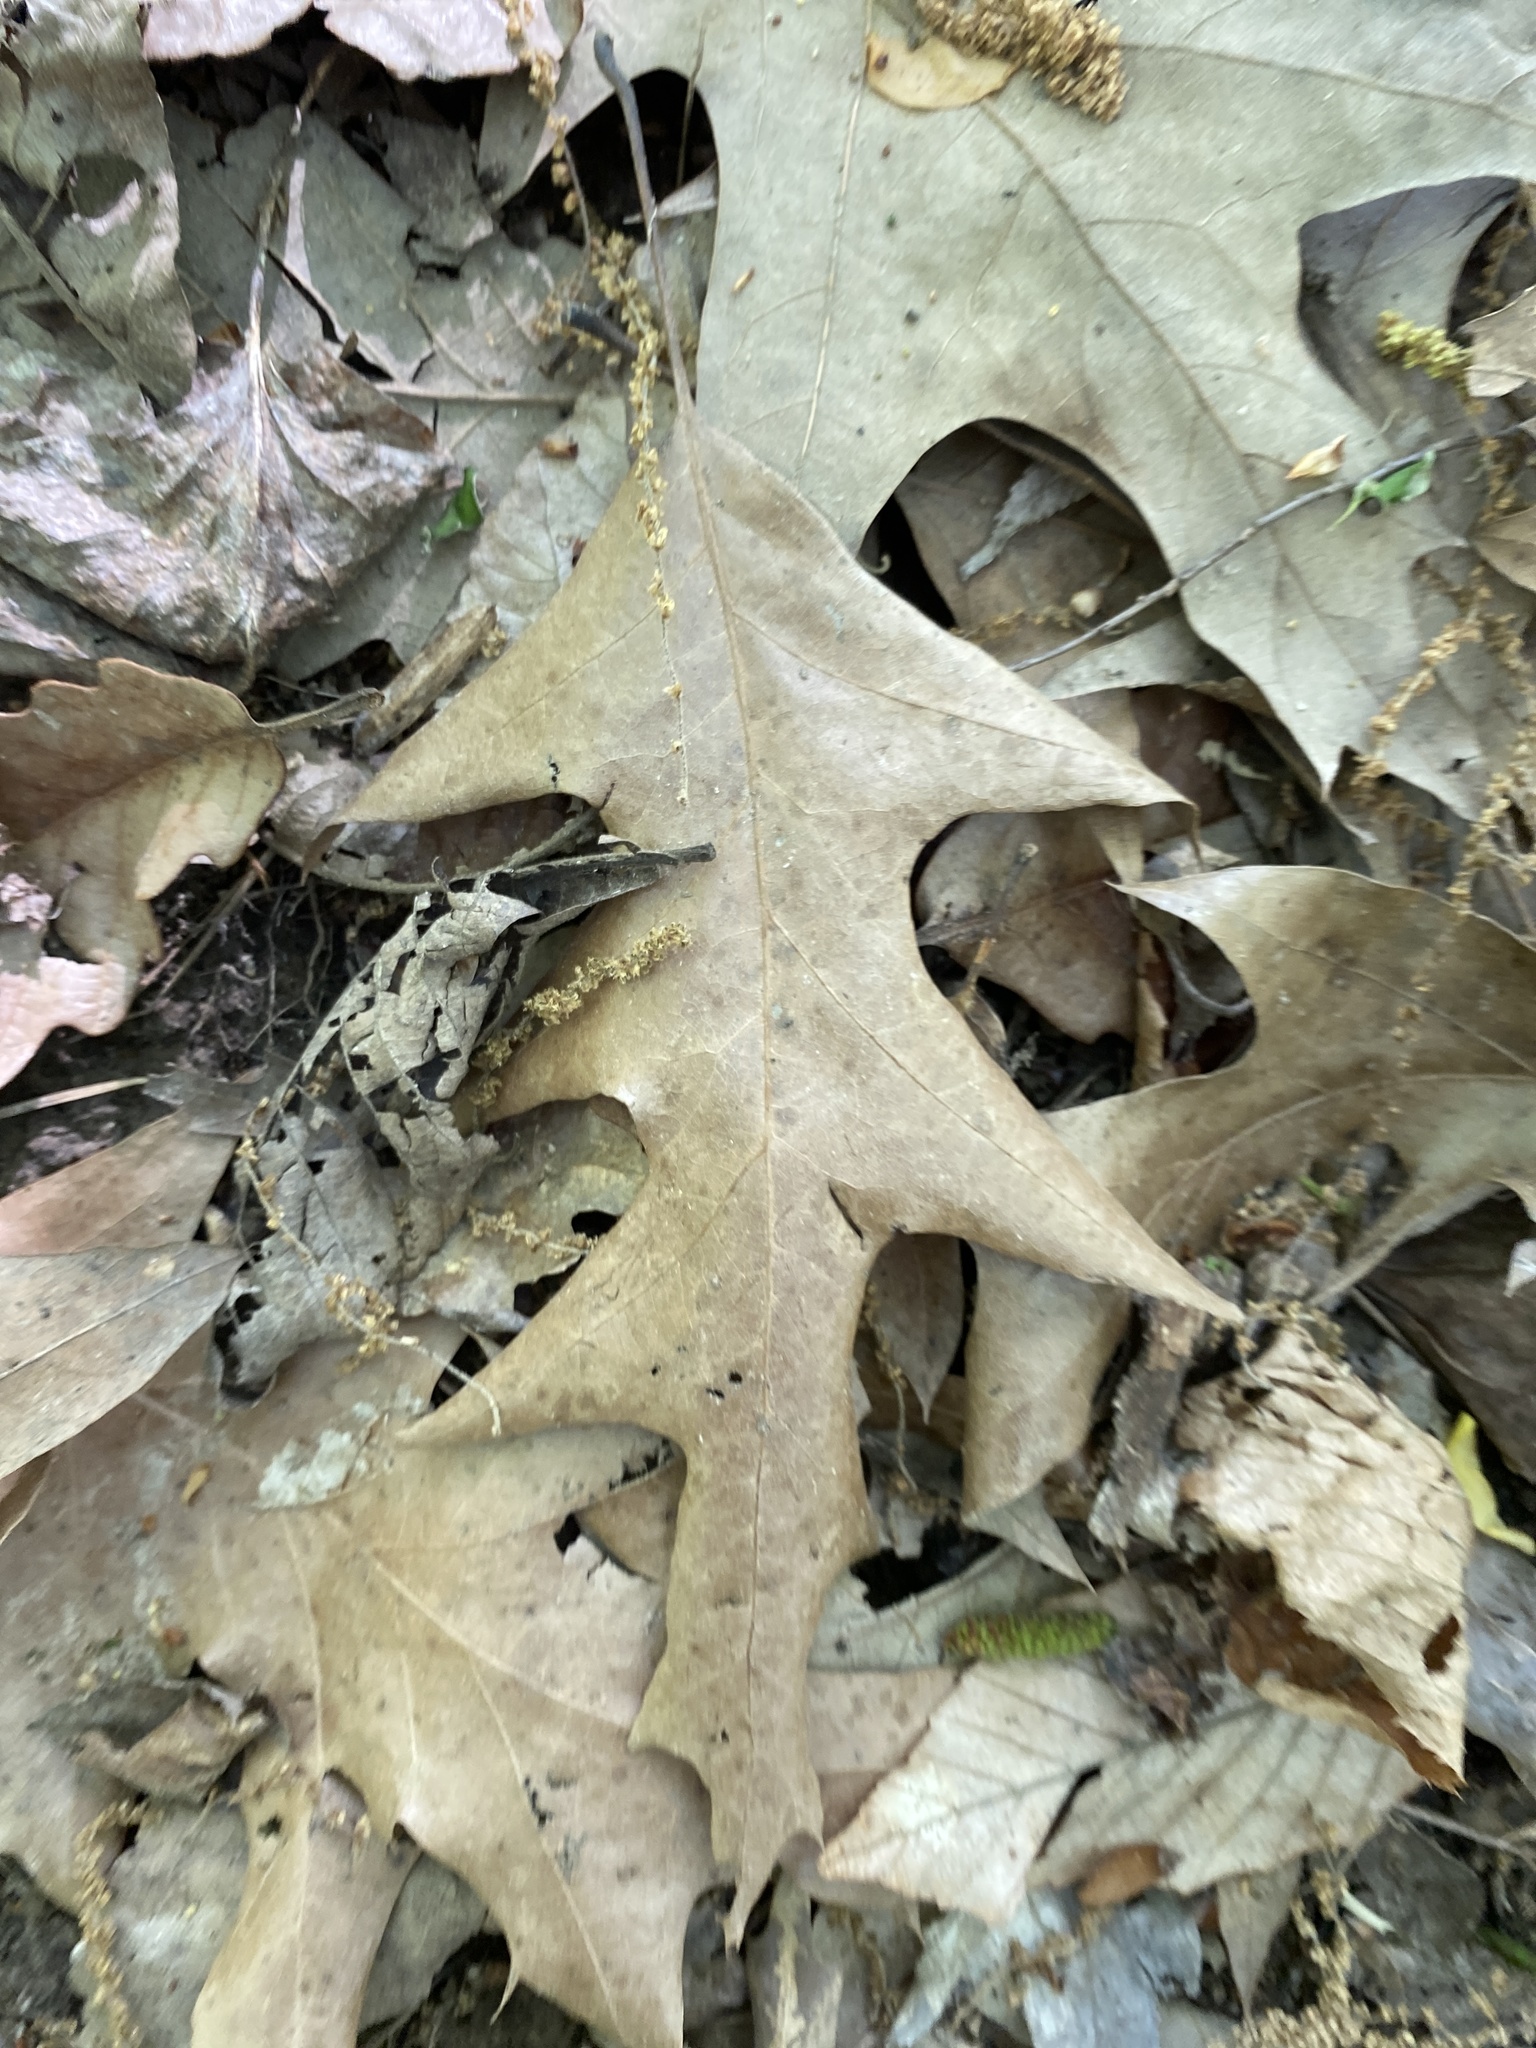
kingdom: Plantae
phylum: Tracheophyta
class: Magnoliopsida
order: Fagales
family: Fagaceae
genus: Quercus
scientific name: Quercus pagoda
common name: Cherrybark oak
